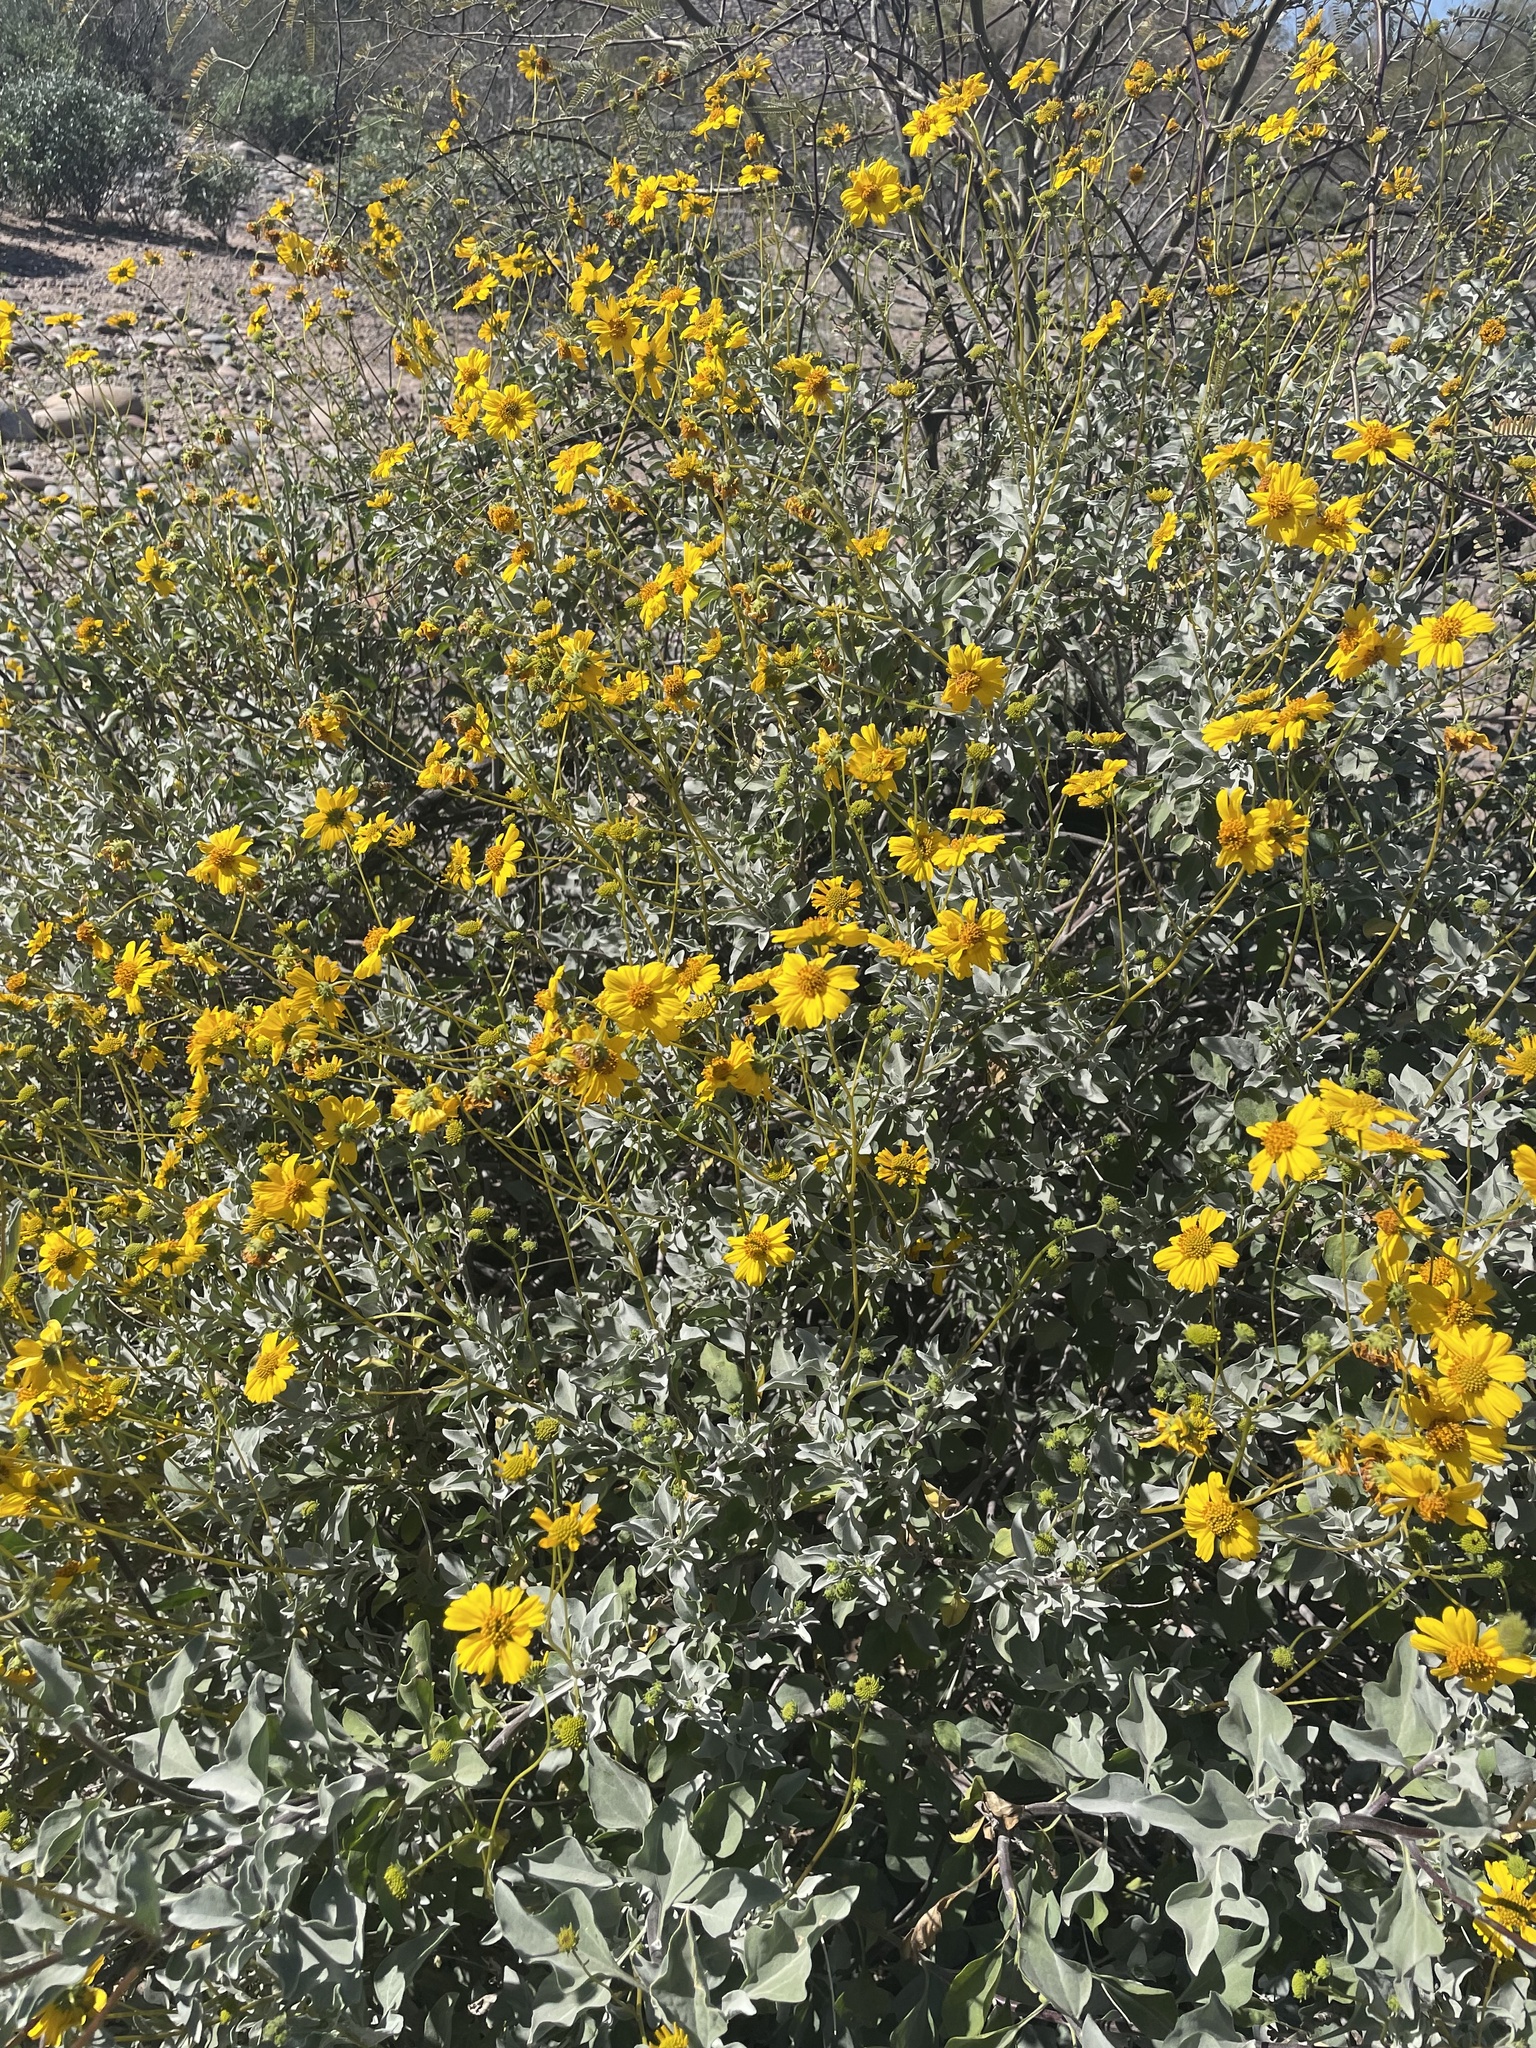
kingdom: Plantae
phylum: Tracheophyta
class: Magnoliopsida
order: Asterales
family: Asteraceae
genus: Encelia
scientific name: Encelia farinosa
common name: Brittlebush
